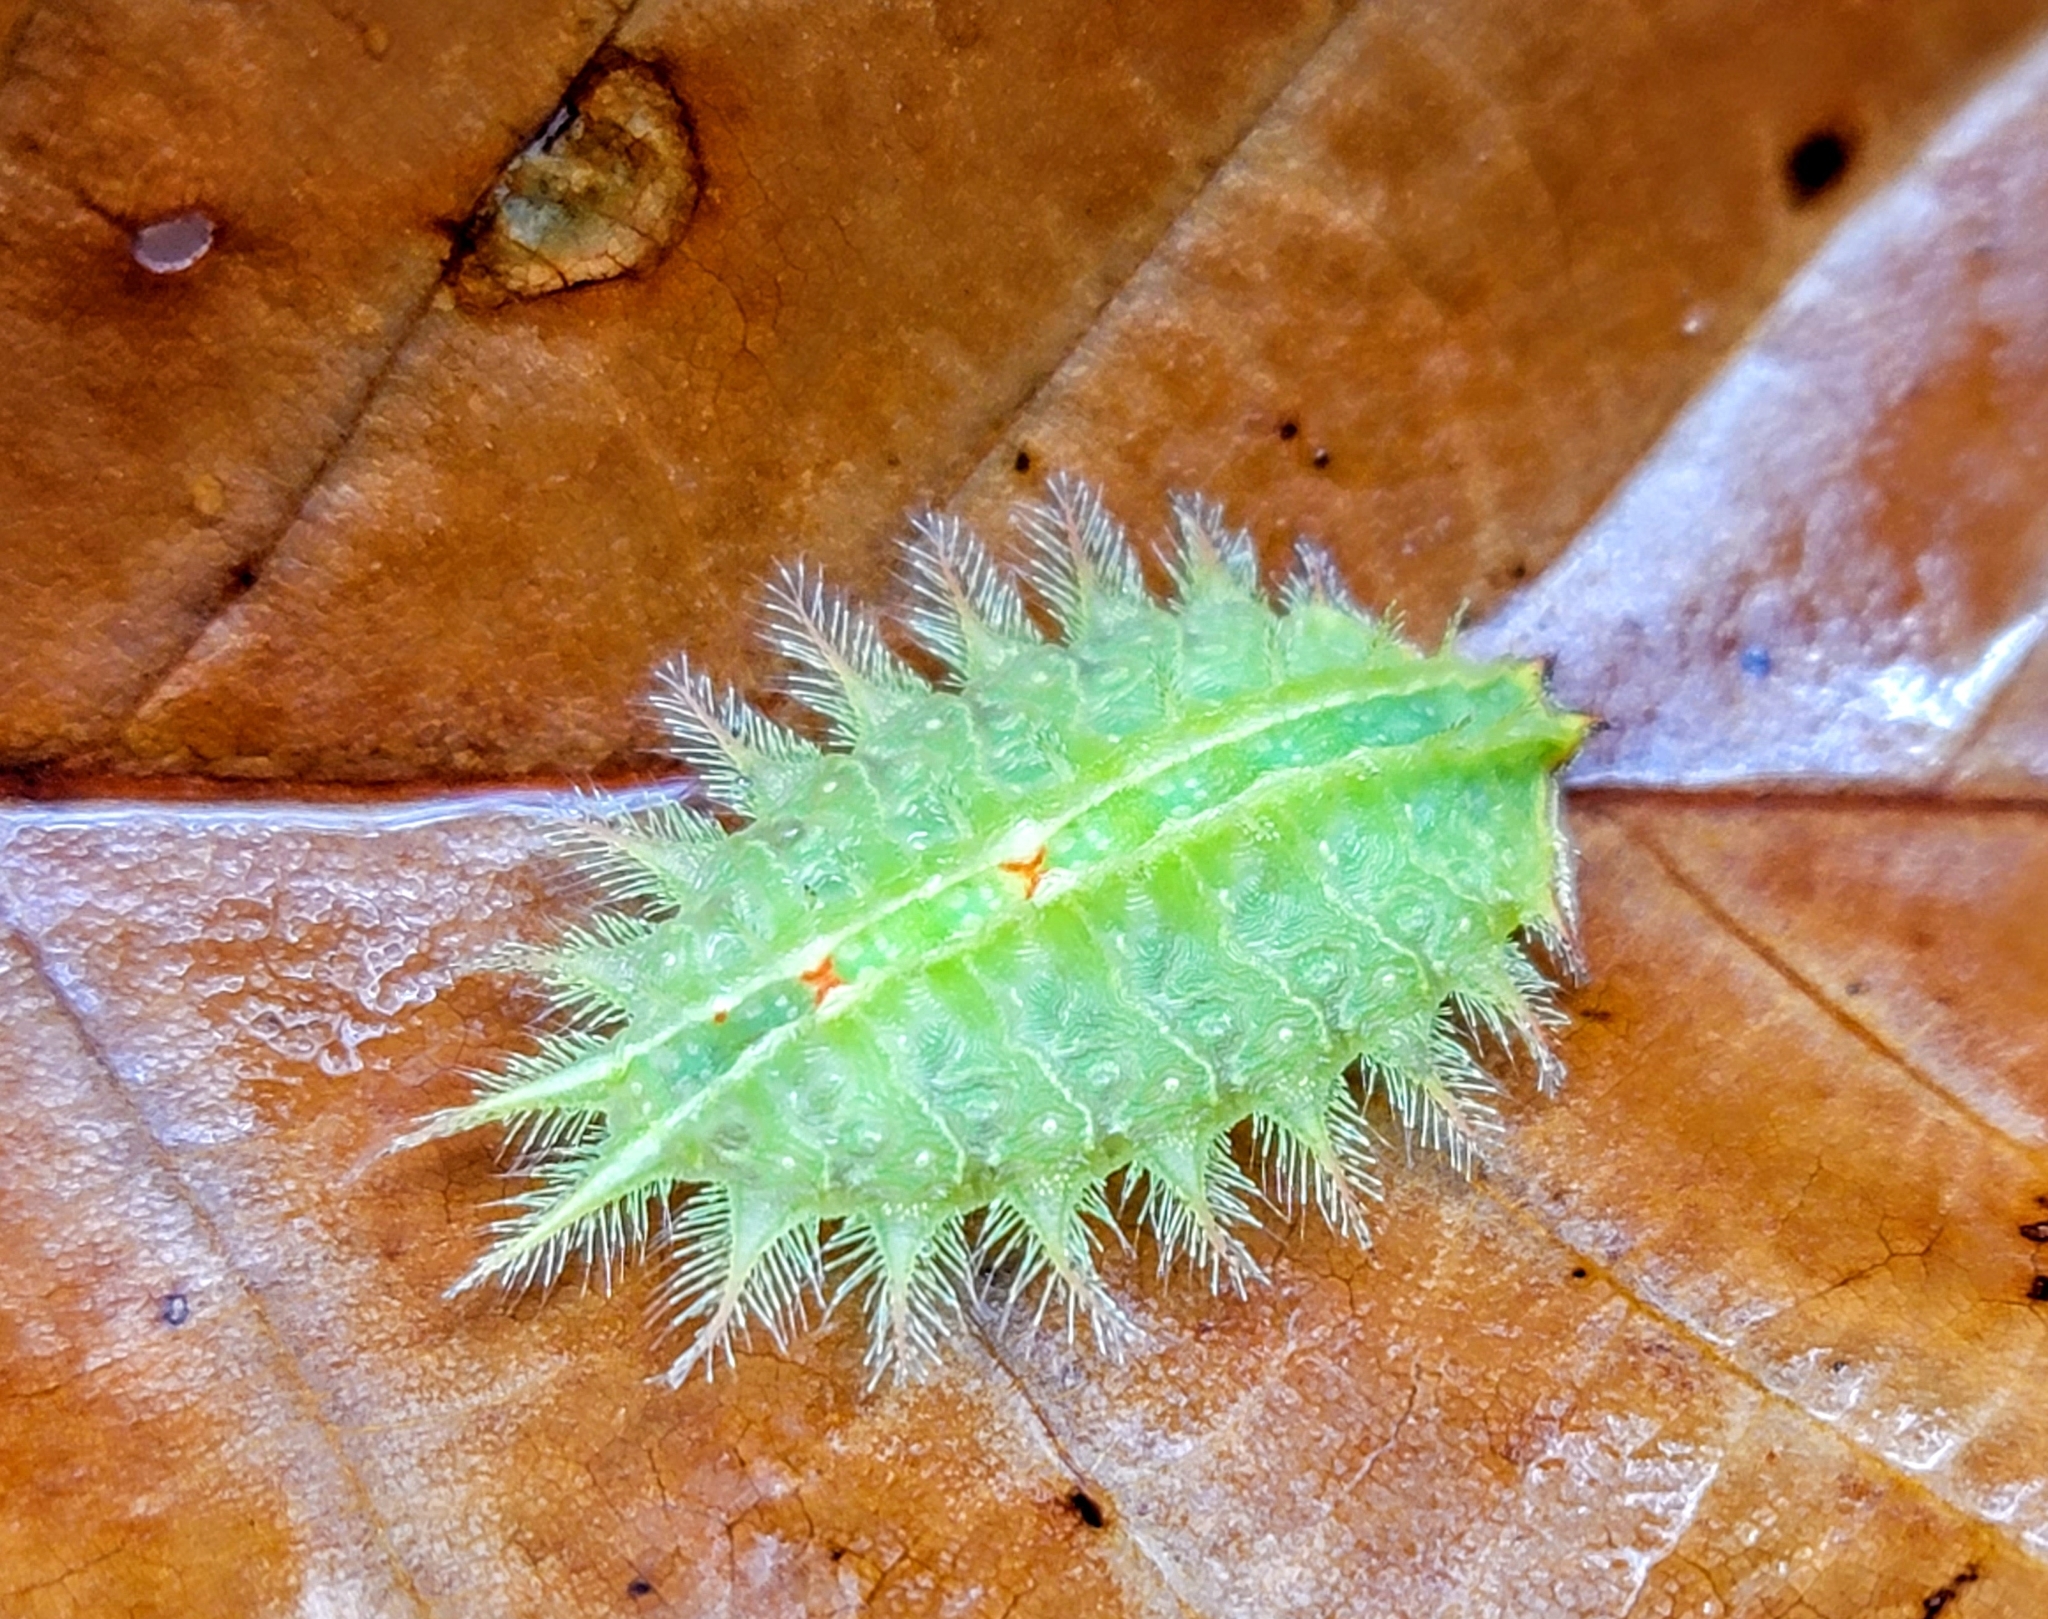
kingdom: Animalia
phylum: Arthropoda
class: Insecta
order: Lepidoptera
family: Limacodidae
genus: Isa
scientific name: Isa textula
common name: Crowned slug moth
